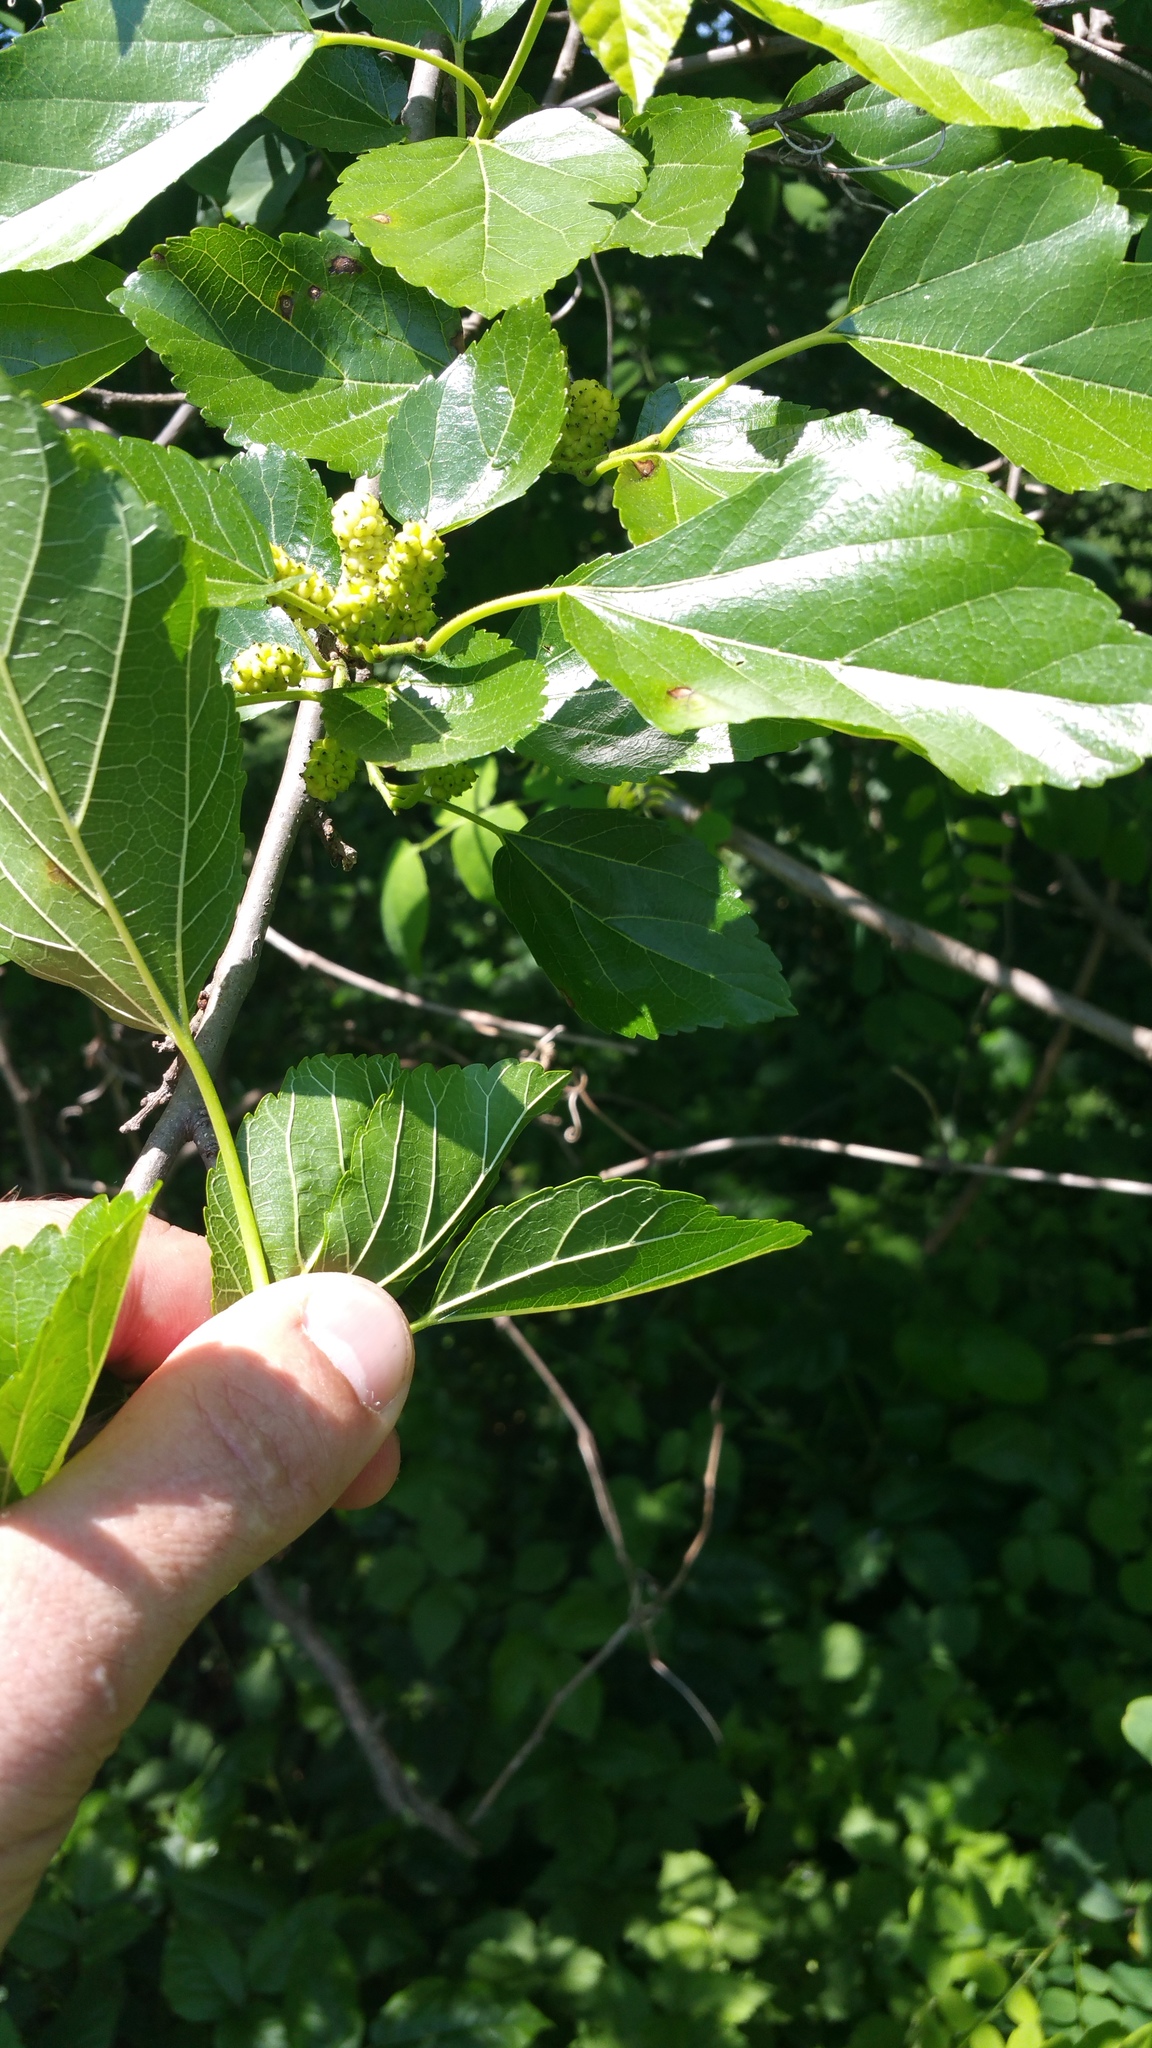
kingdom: Plantae
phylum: Tracheophyta
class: Magnoliopsida
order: Celastrales
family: Celastraceae
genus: Celastrus
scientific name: Celastrus orbiculatus
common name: Oriental bittersweet
